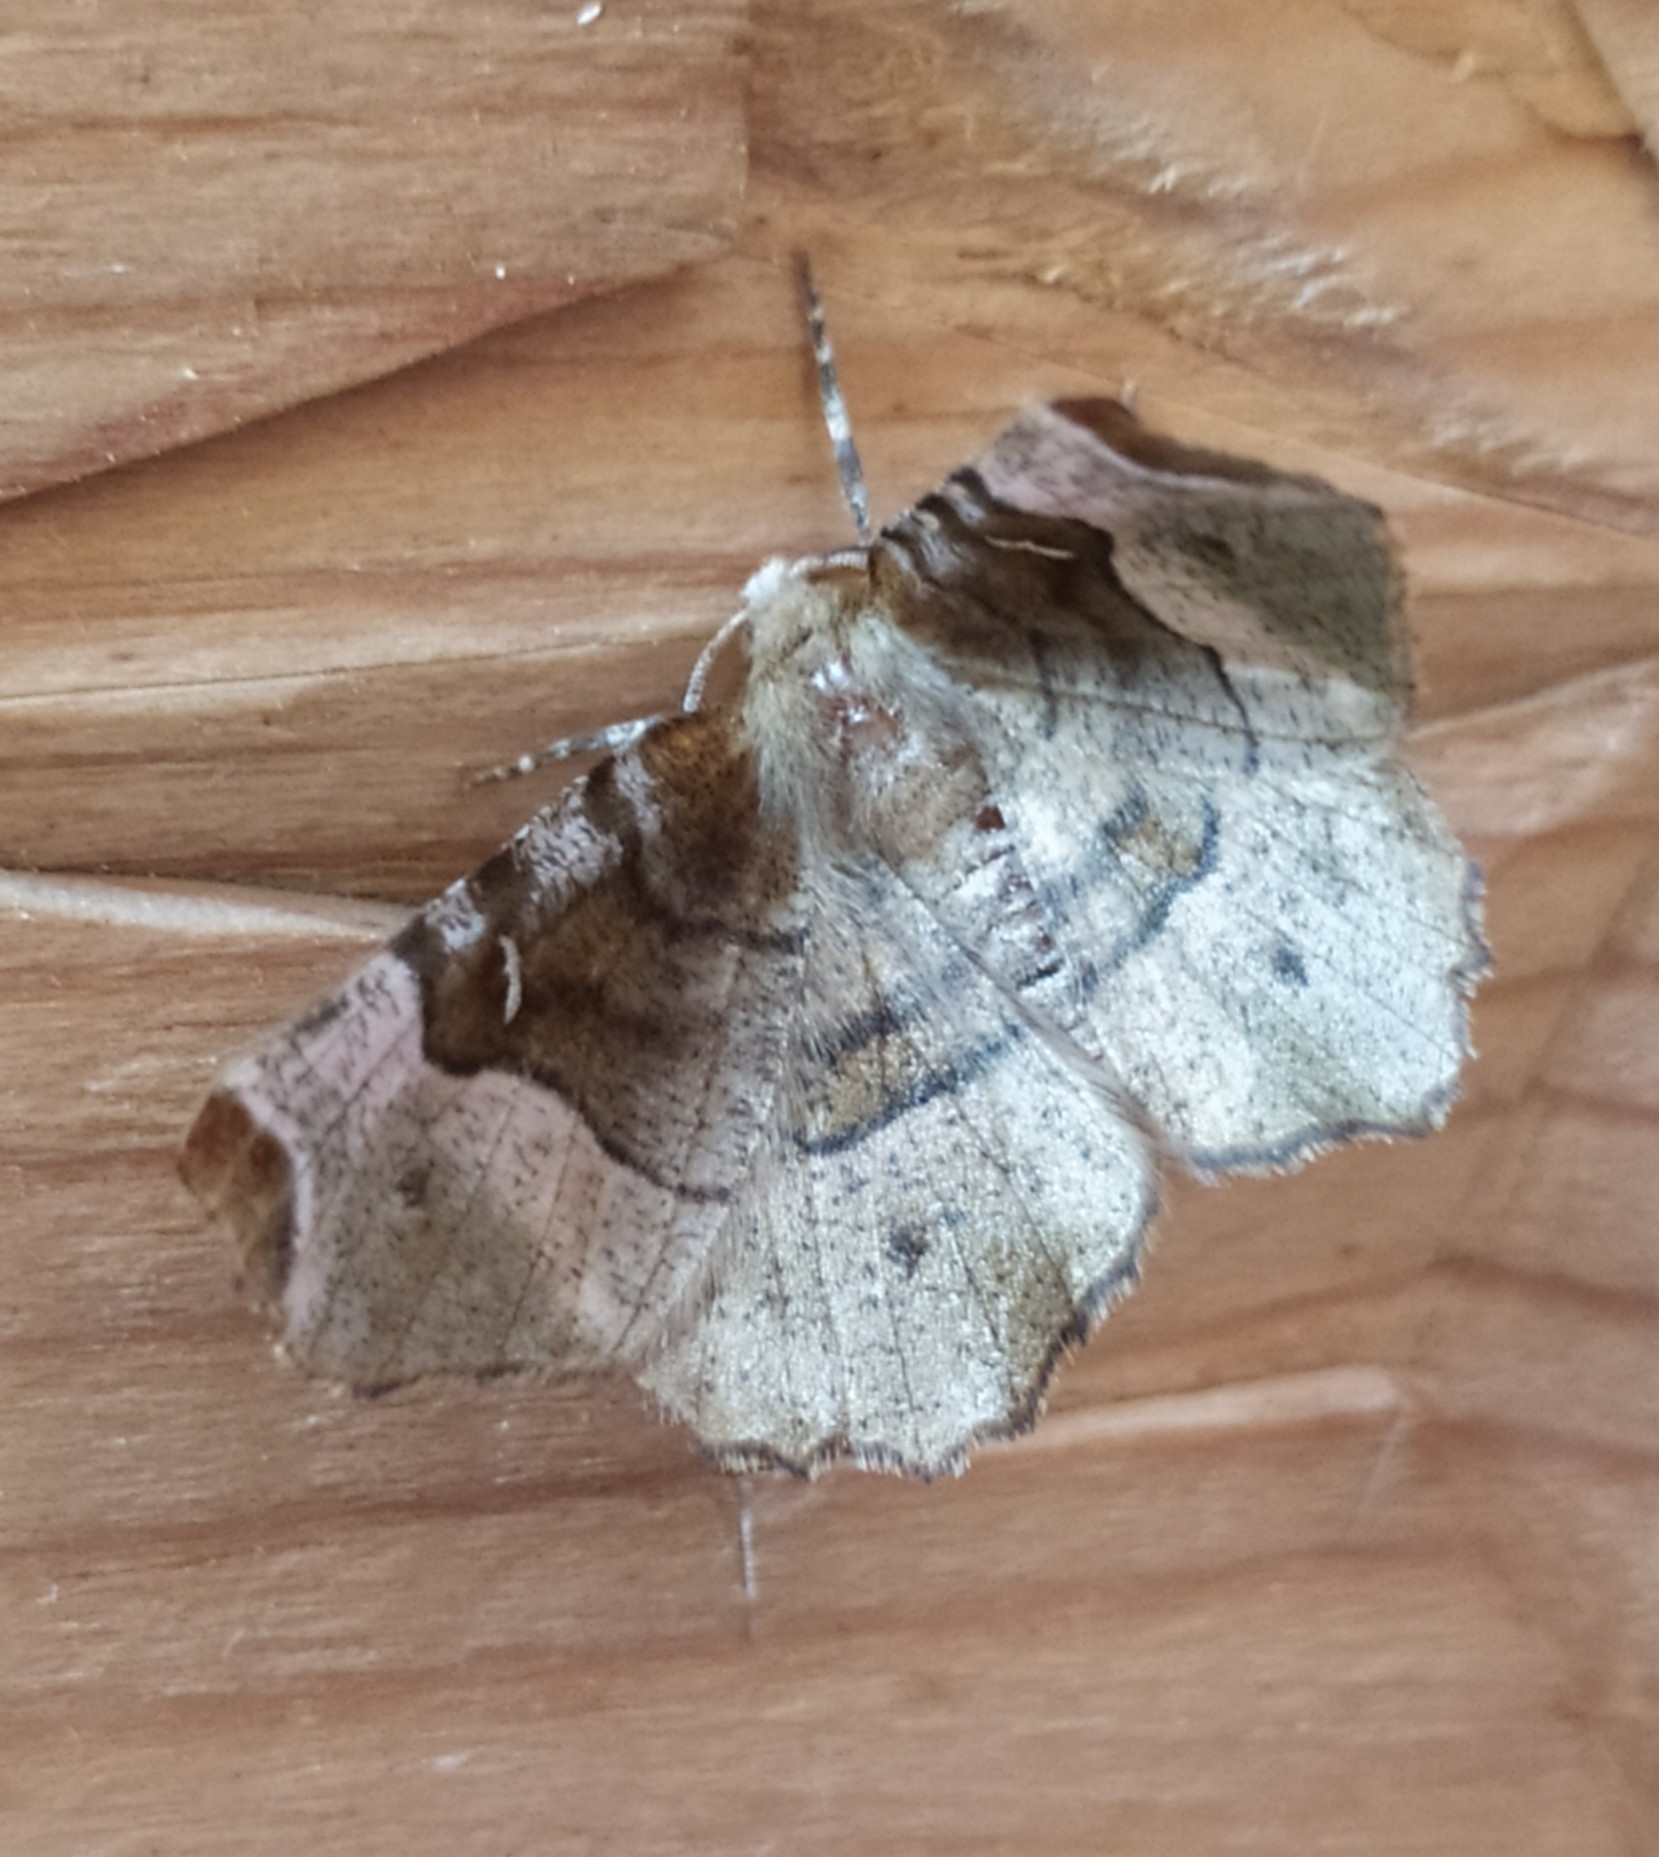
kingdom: Animalia
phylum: Arthropoda
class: Insecta
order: Lepidoptera
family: Geometridae
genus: Selenia
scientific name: Selenia tetralunaria
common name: Purple thorn
